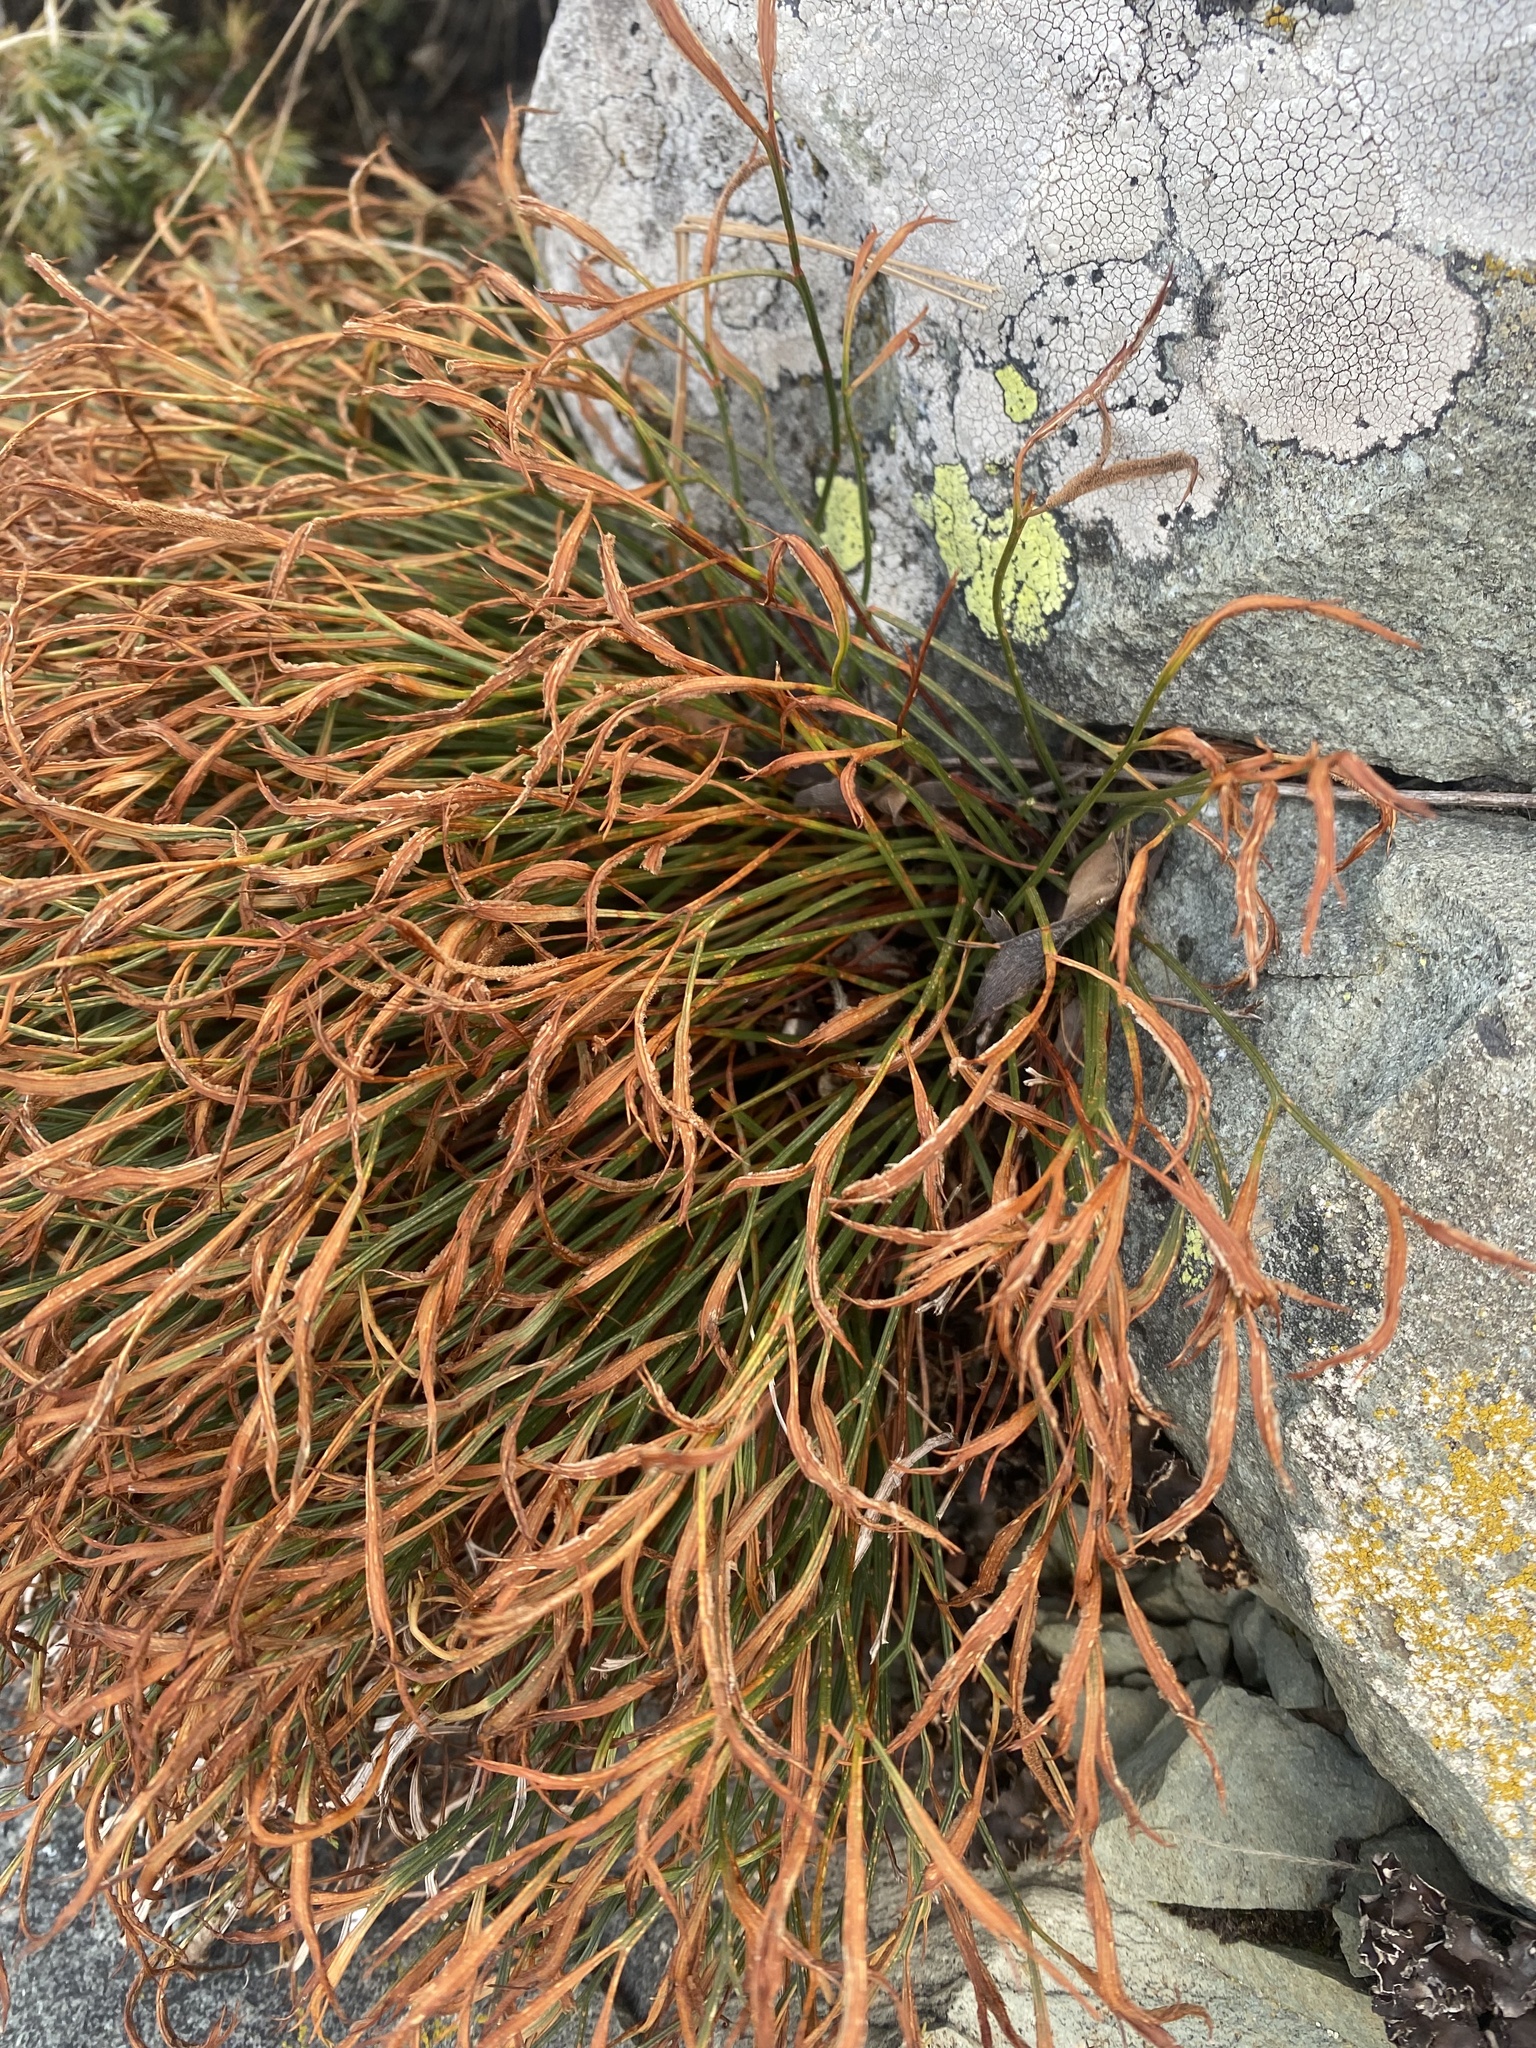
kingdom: Plantae
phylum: Tracheophyta
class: Polypodiopsida
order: Polypodiales
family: Aspleniaceae
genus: Asplenium
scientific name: Asplenium septentrionale
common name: Forked spleenwort
